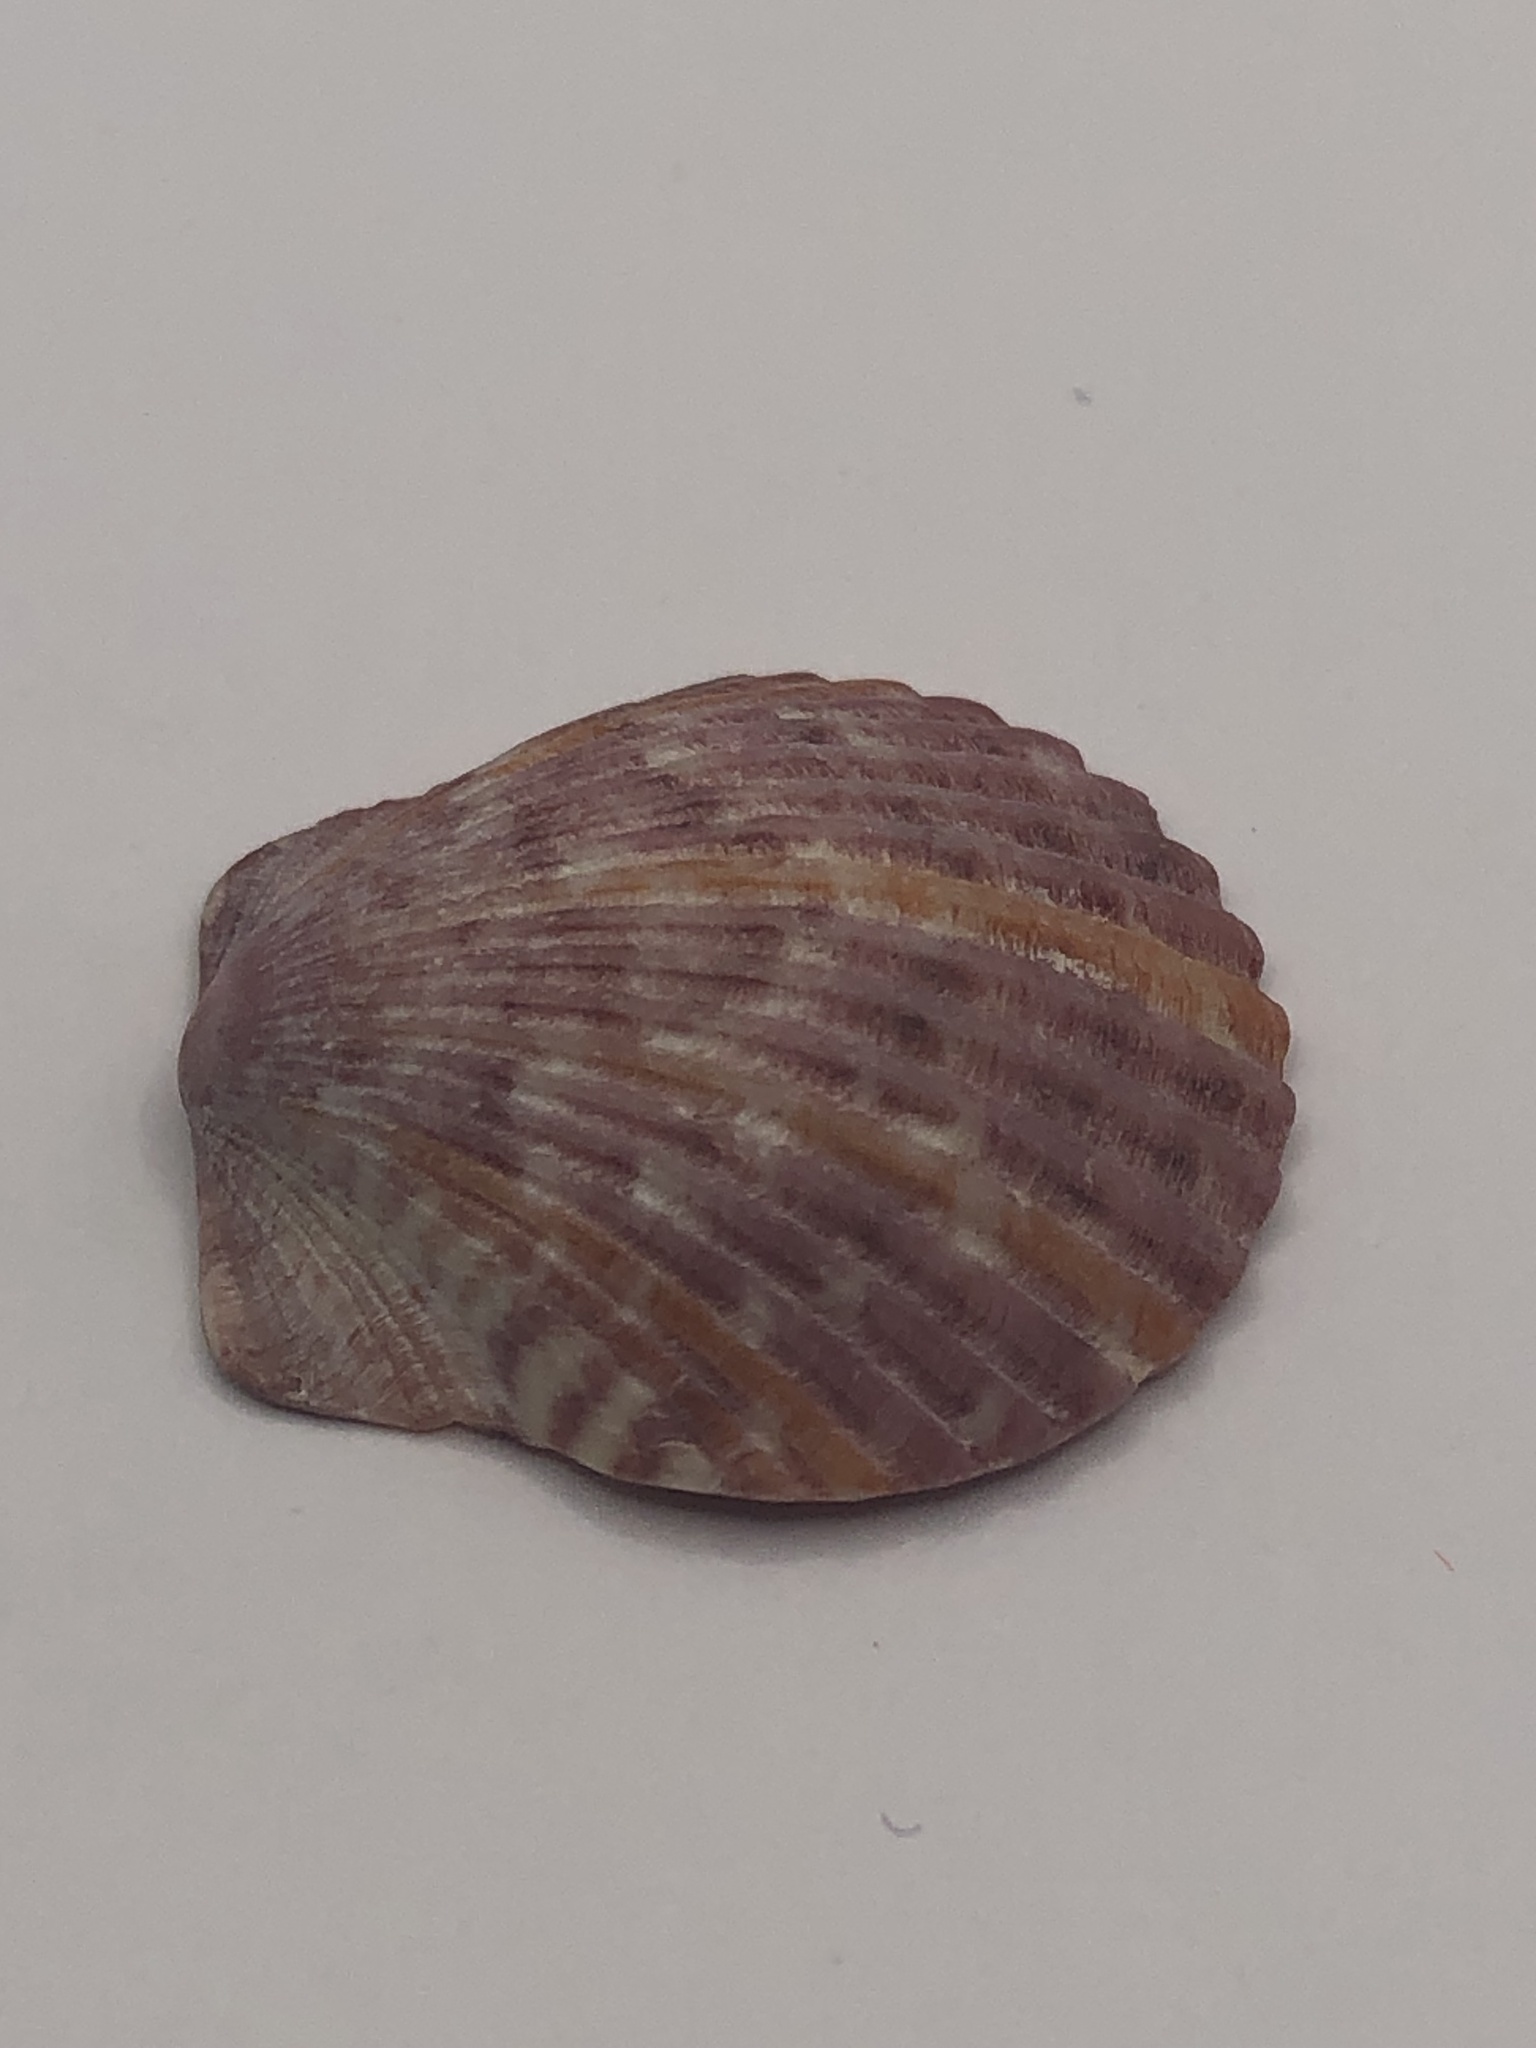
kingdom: Animalia
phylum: Mollusca
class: Bivalvia
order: Pectinida
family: Pectinidae
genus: Argopecten
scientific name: Argopecten gibbus
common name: Atlantic calico scallop
